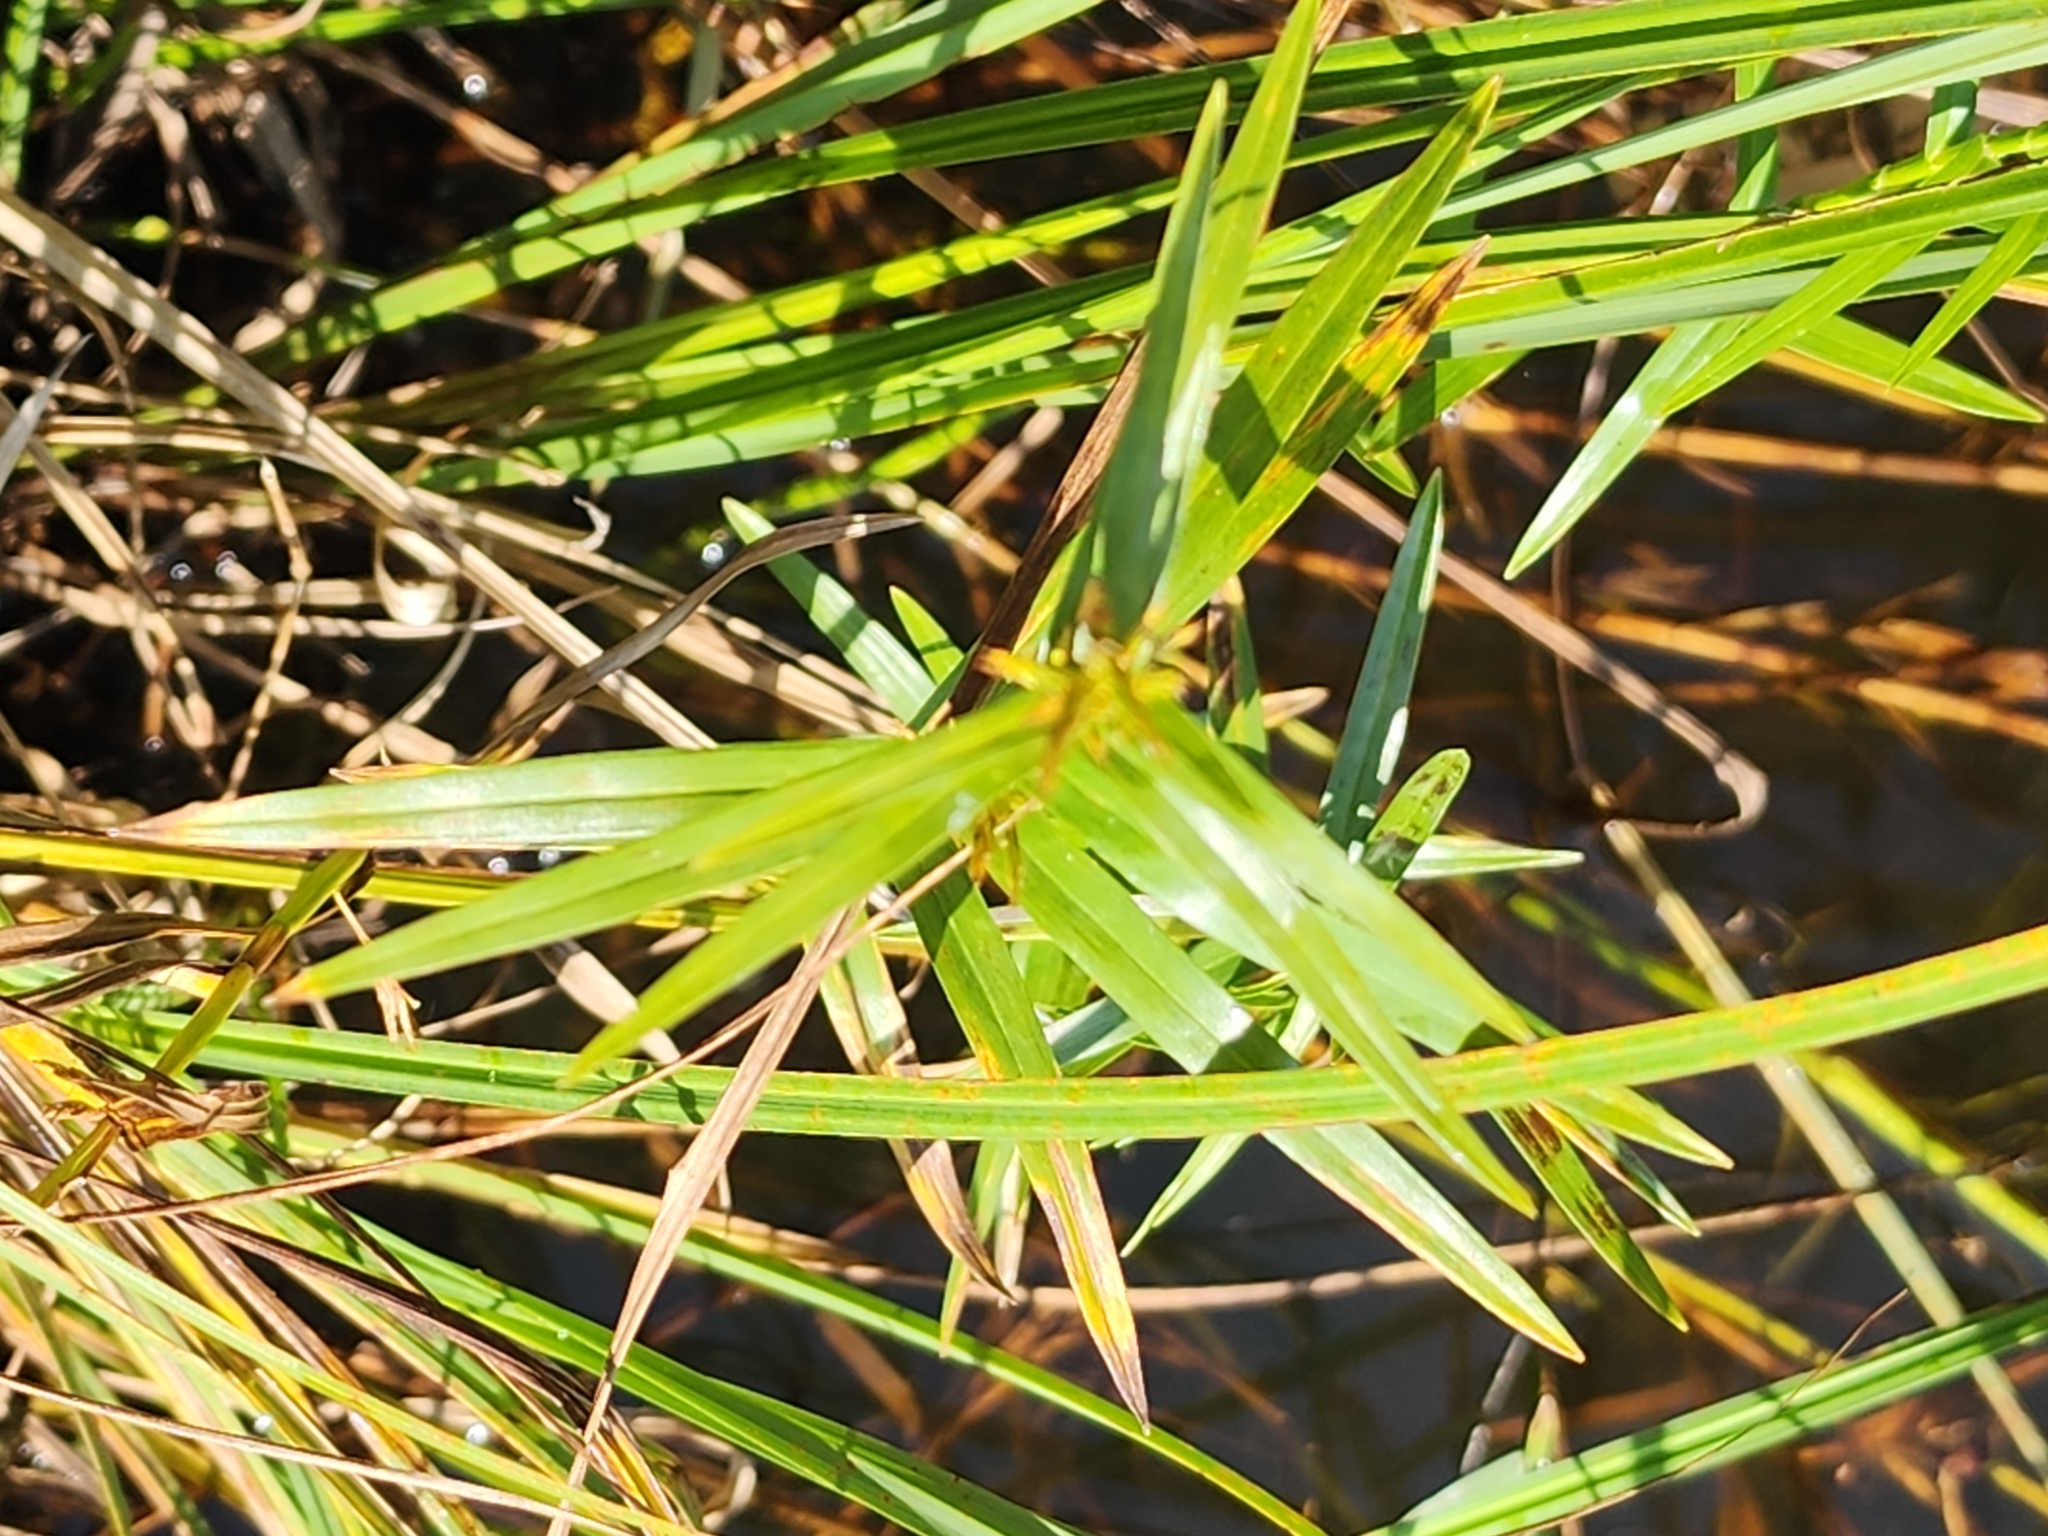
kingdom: Plantae
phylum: Tracheophyta
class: Liliopsida
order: Poales
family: Cyperaceae
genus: Dulichium
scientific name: Dulichium arundinaceum
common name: Three-way sedge
